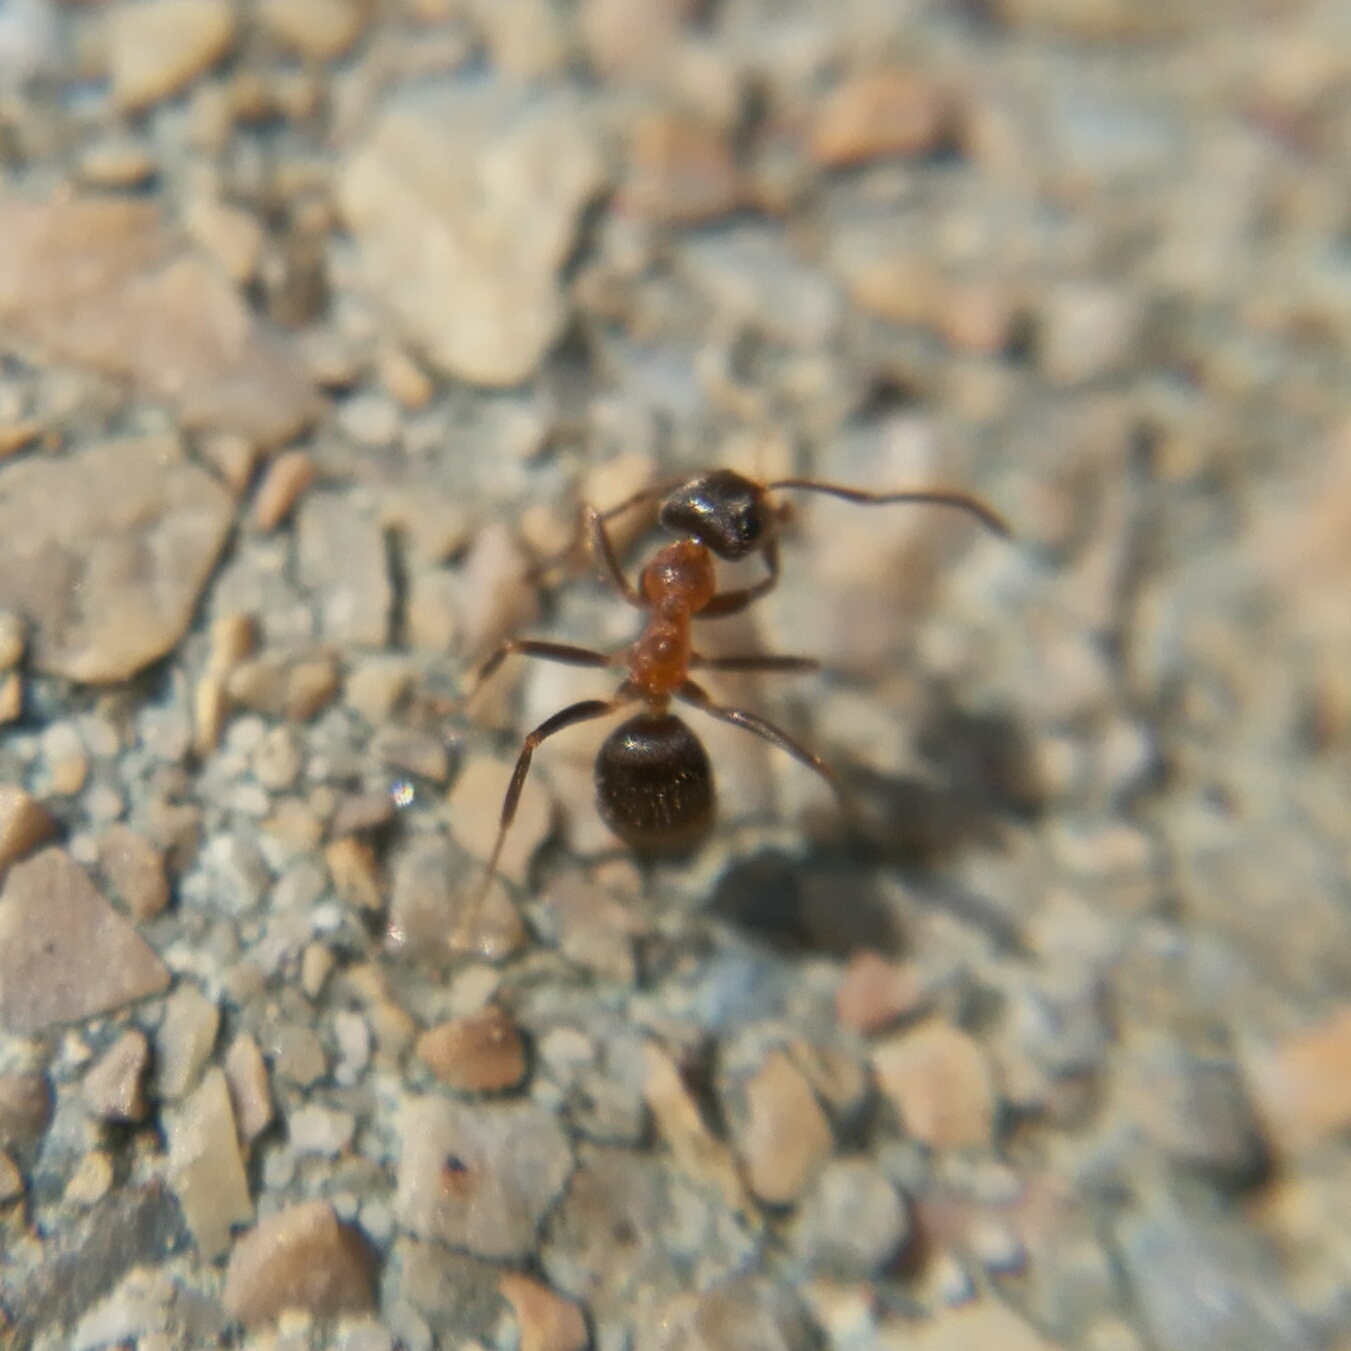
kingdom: Animalia
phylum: Arthropoda
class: Insecta
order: Hymenoptera
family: Formicidae
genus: Lasius
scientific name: Lasius emarginatus
